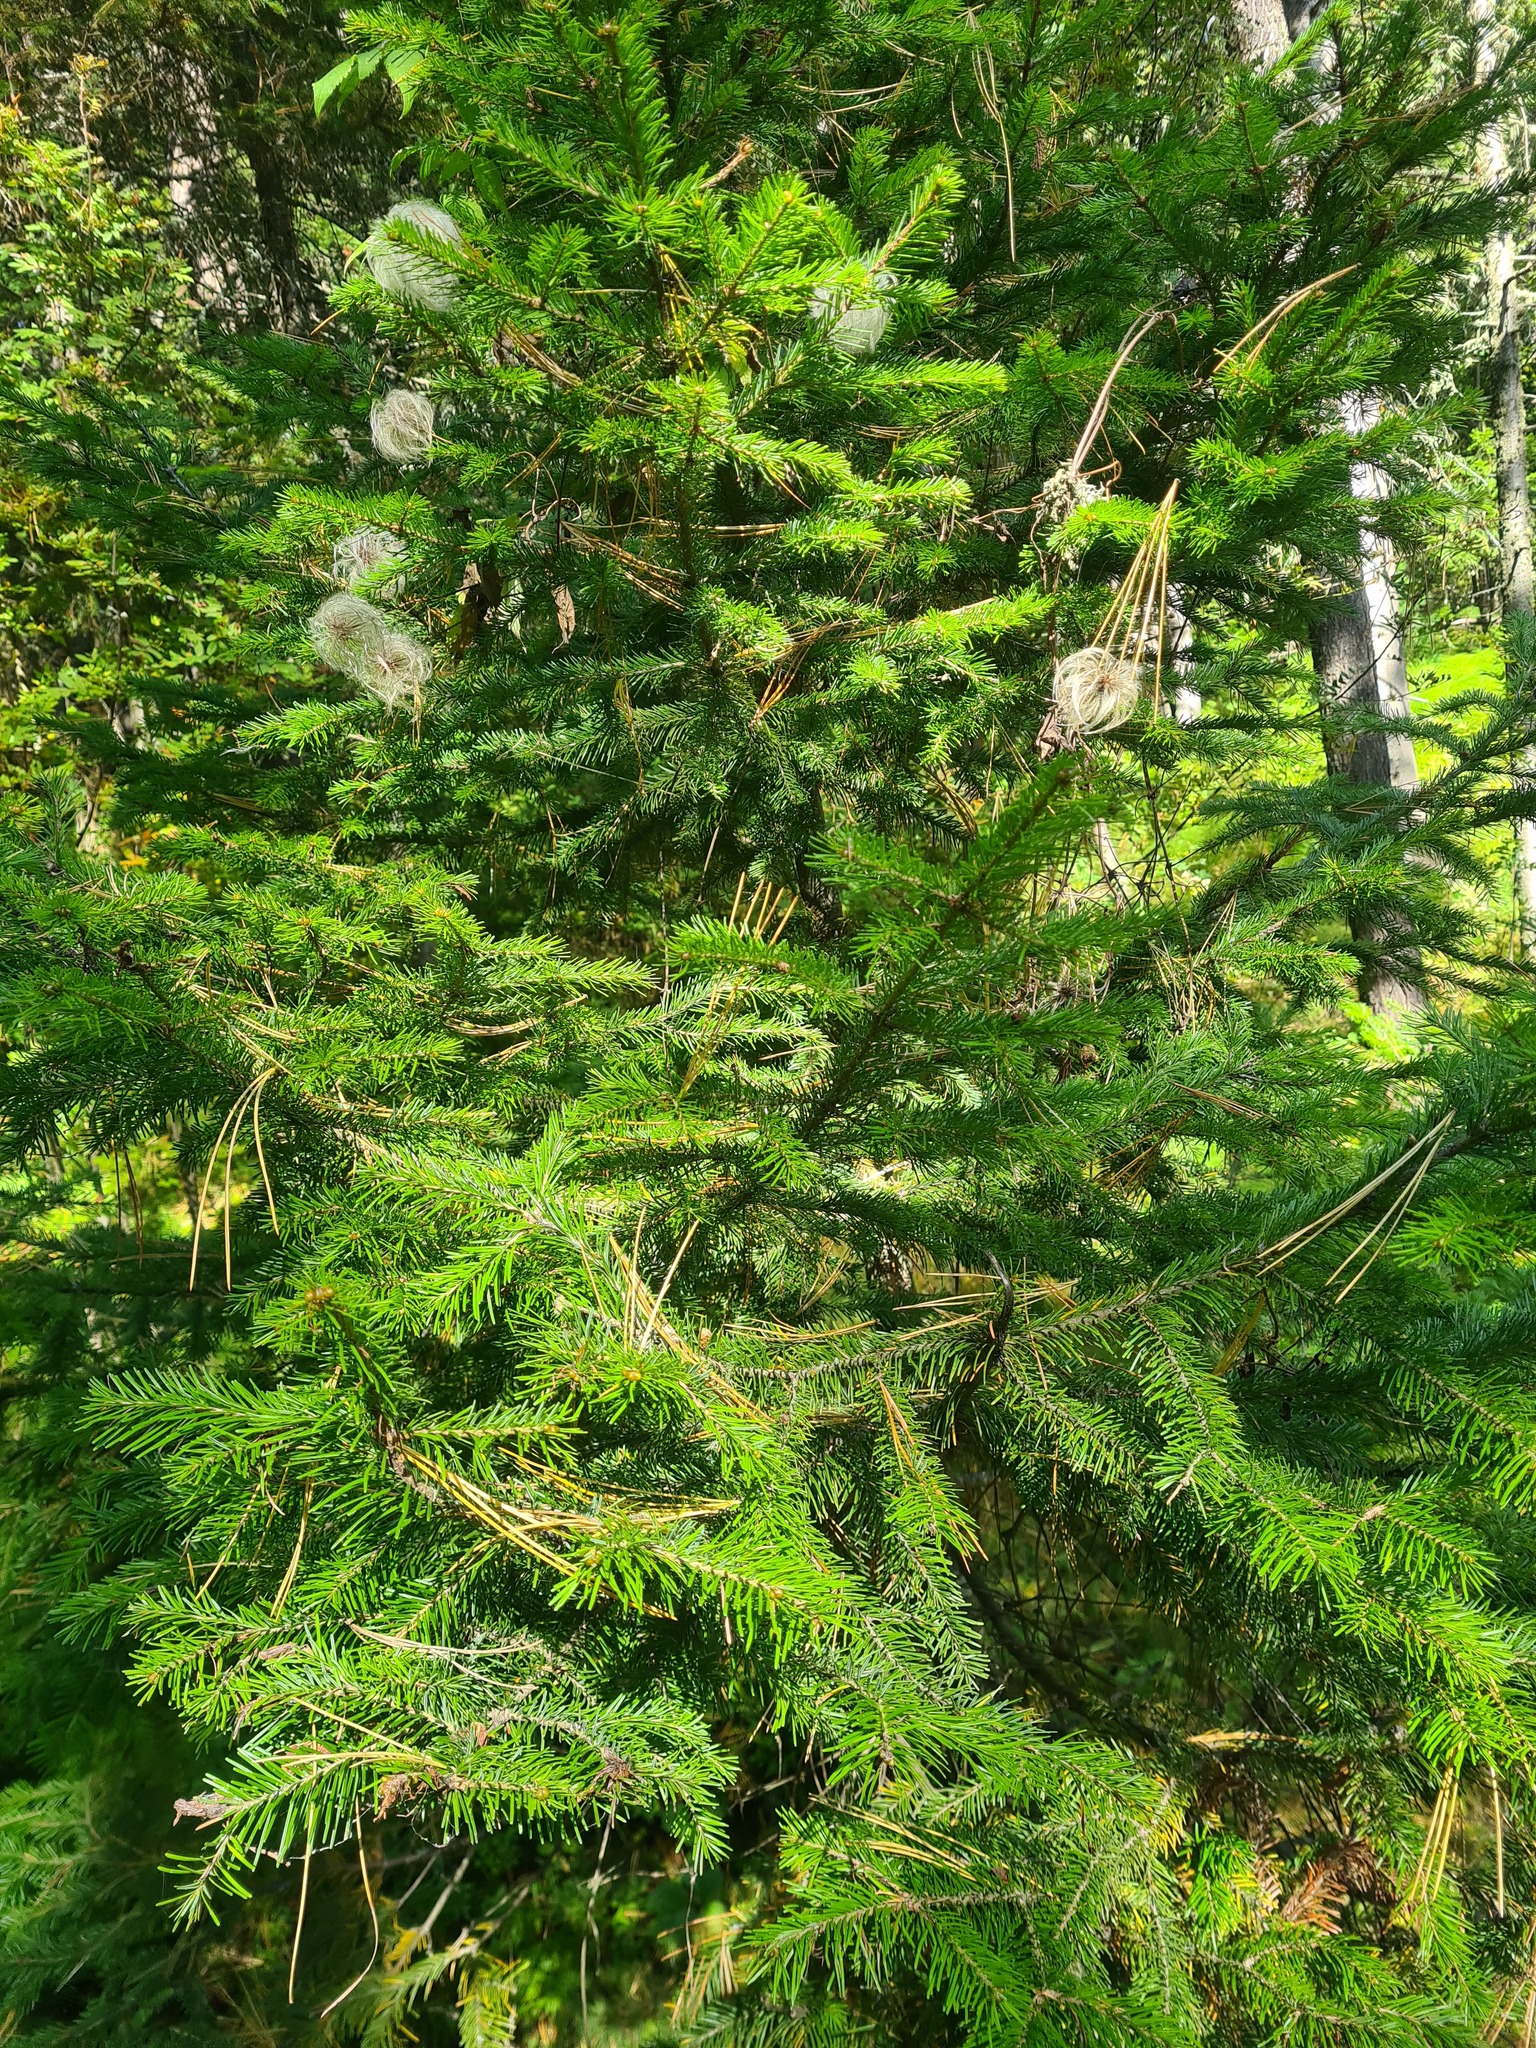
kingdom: Plantae
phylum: Tracheophyta
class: Magnoliopsida
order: Ranunculales
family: Ranunculaceae
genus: Clematis
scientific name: Clematis sibirica
